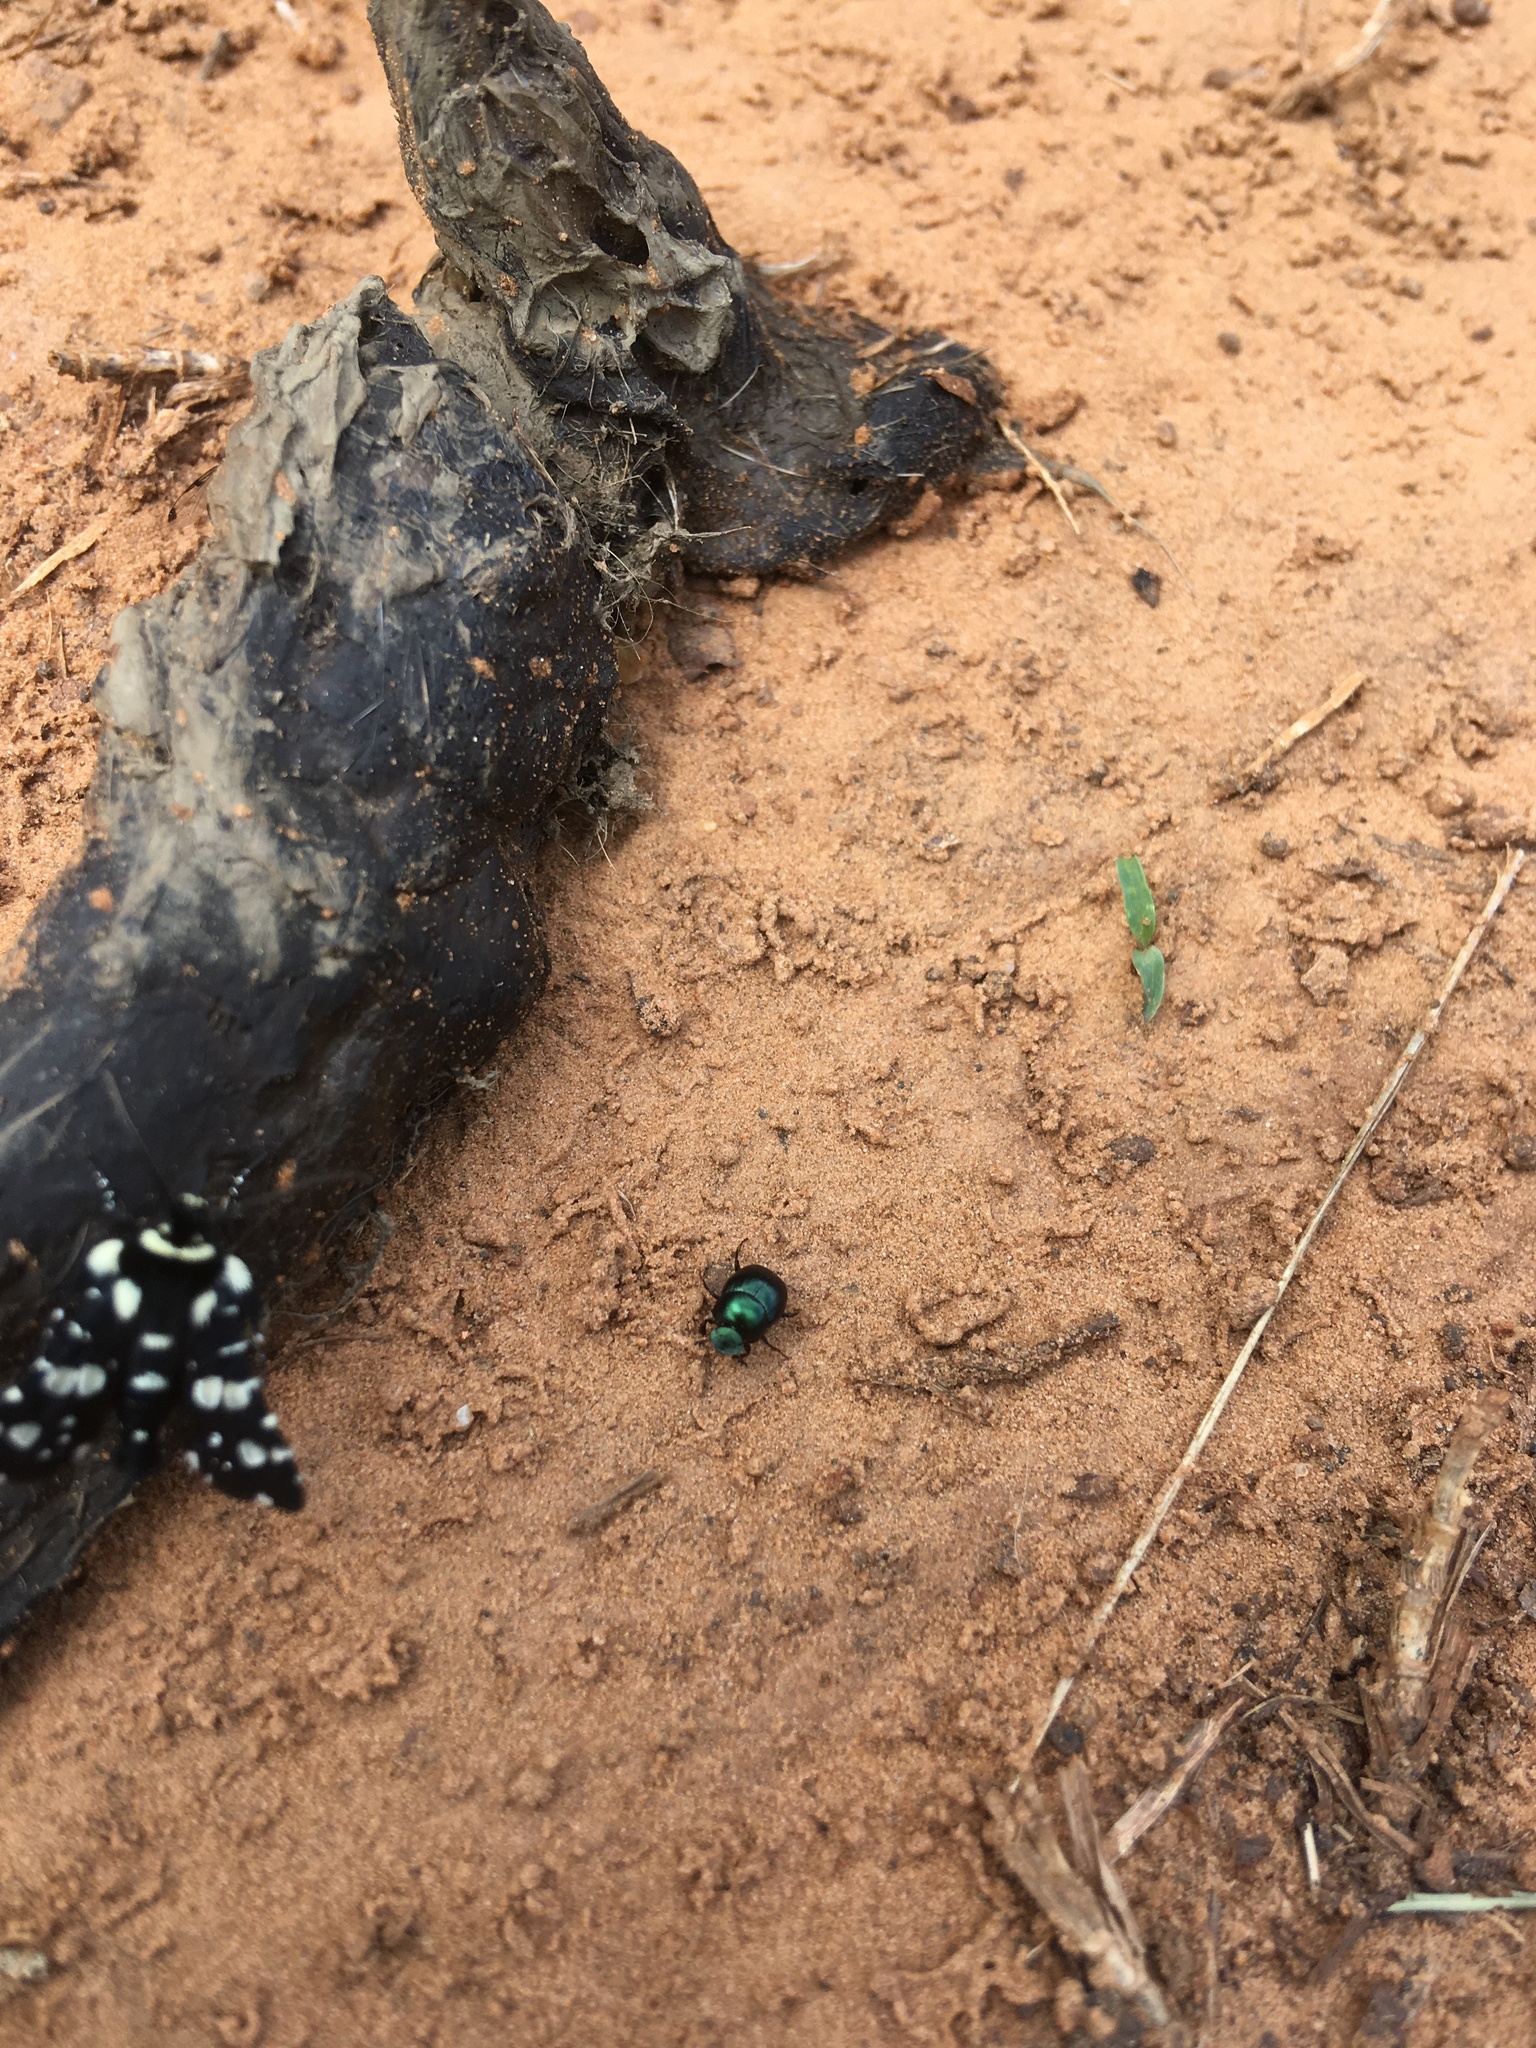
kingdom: Animalia
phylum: Arthropoda
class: Insecta
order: Coleoptera
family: Scarabaeidae
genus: Canthon
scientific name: Canthon viridis
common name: Tumblebug
